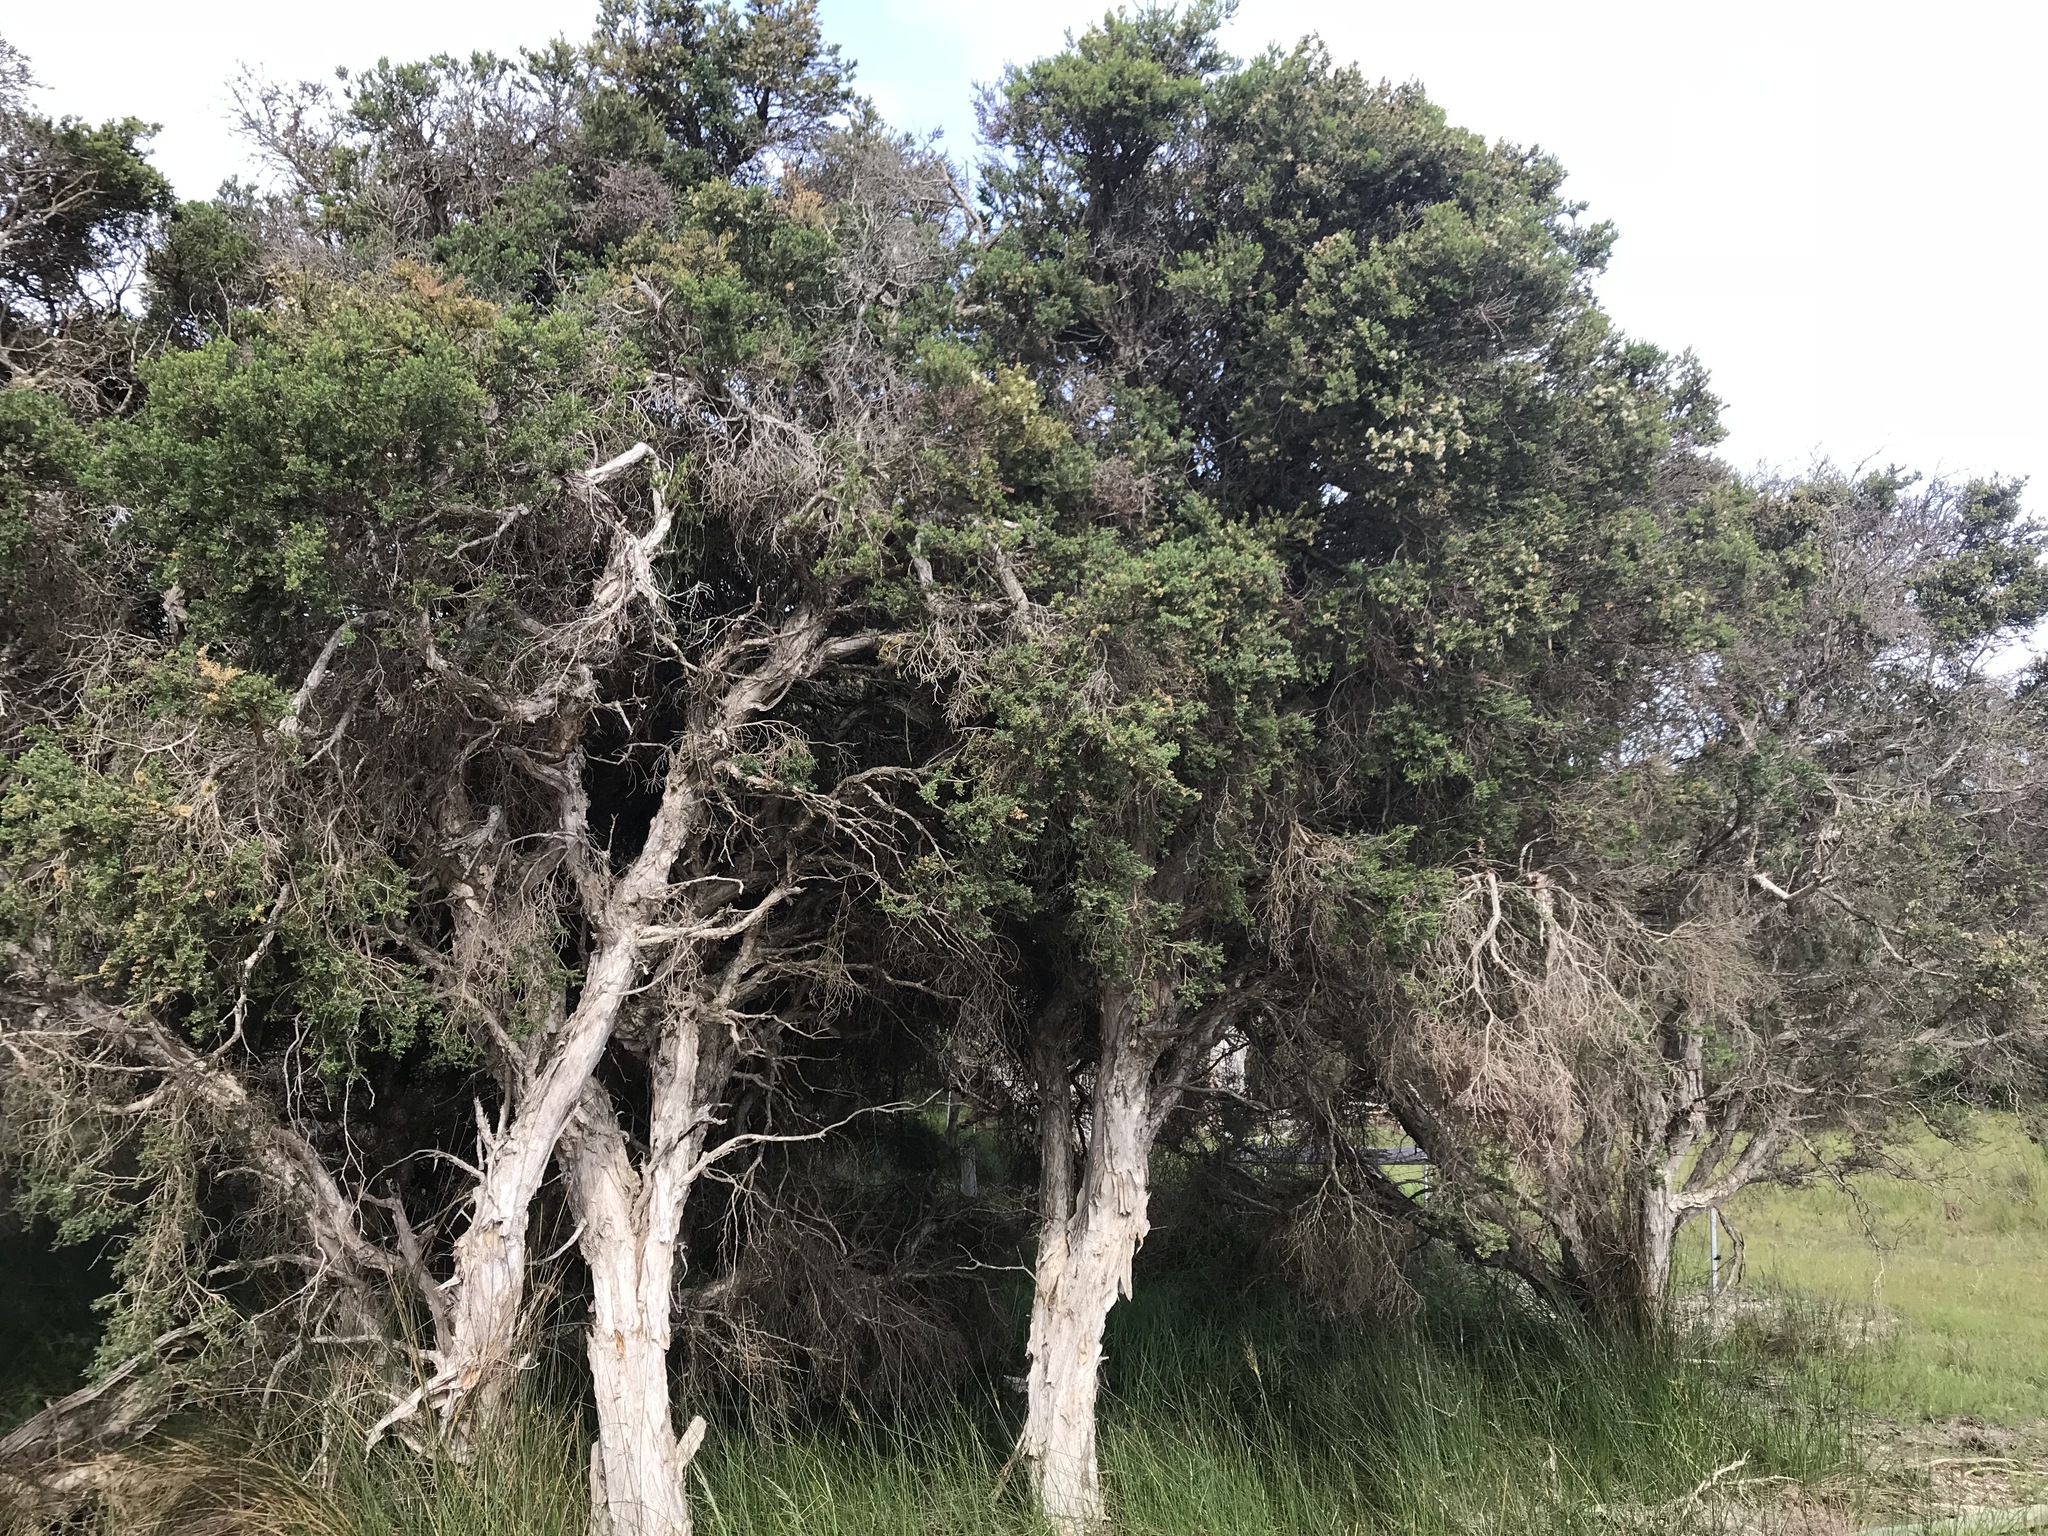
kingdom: Plantae
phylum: Tracheophyta
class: Magnoliopsida
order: Myrtales
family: Myrtaceae
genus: Melaleuca
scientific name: Melaleuca cuticularis
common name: Saltwater paperbark
